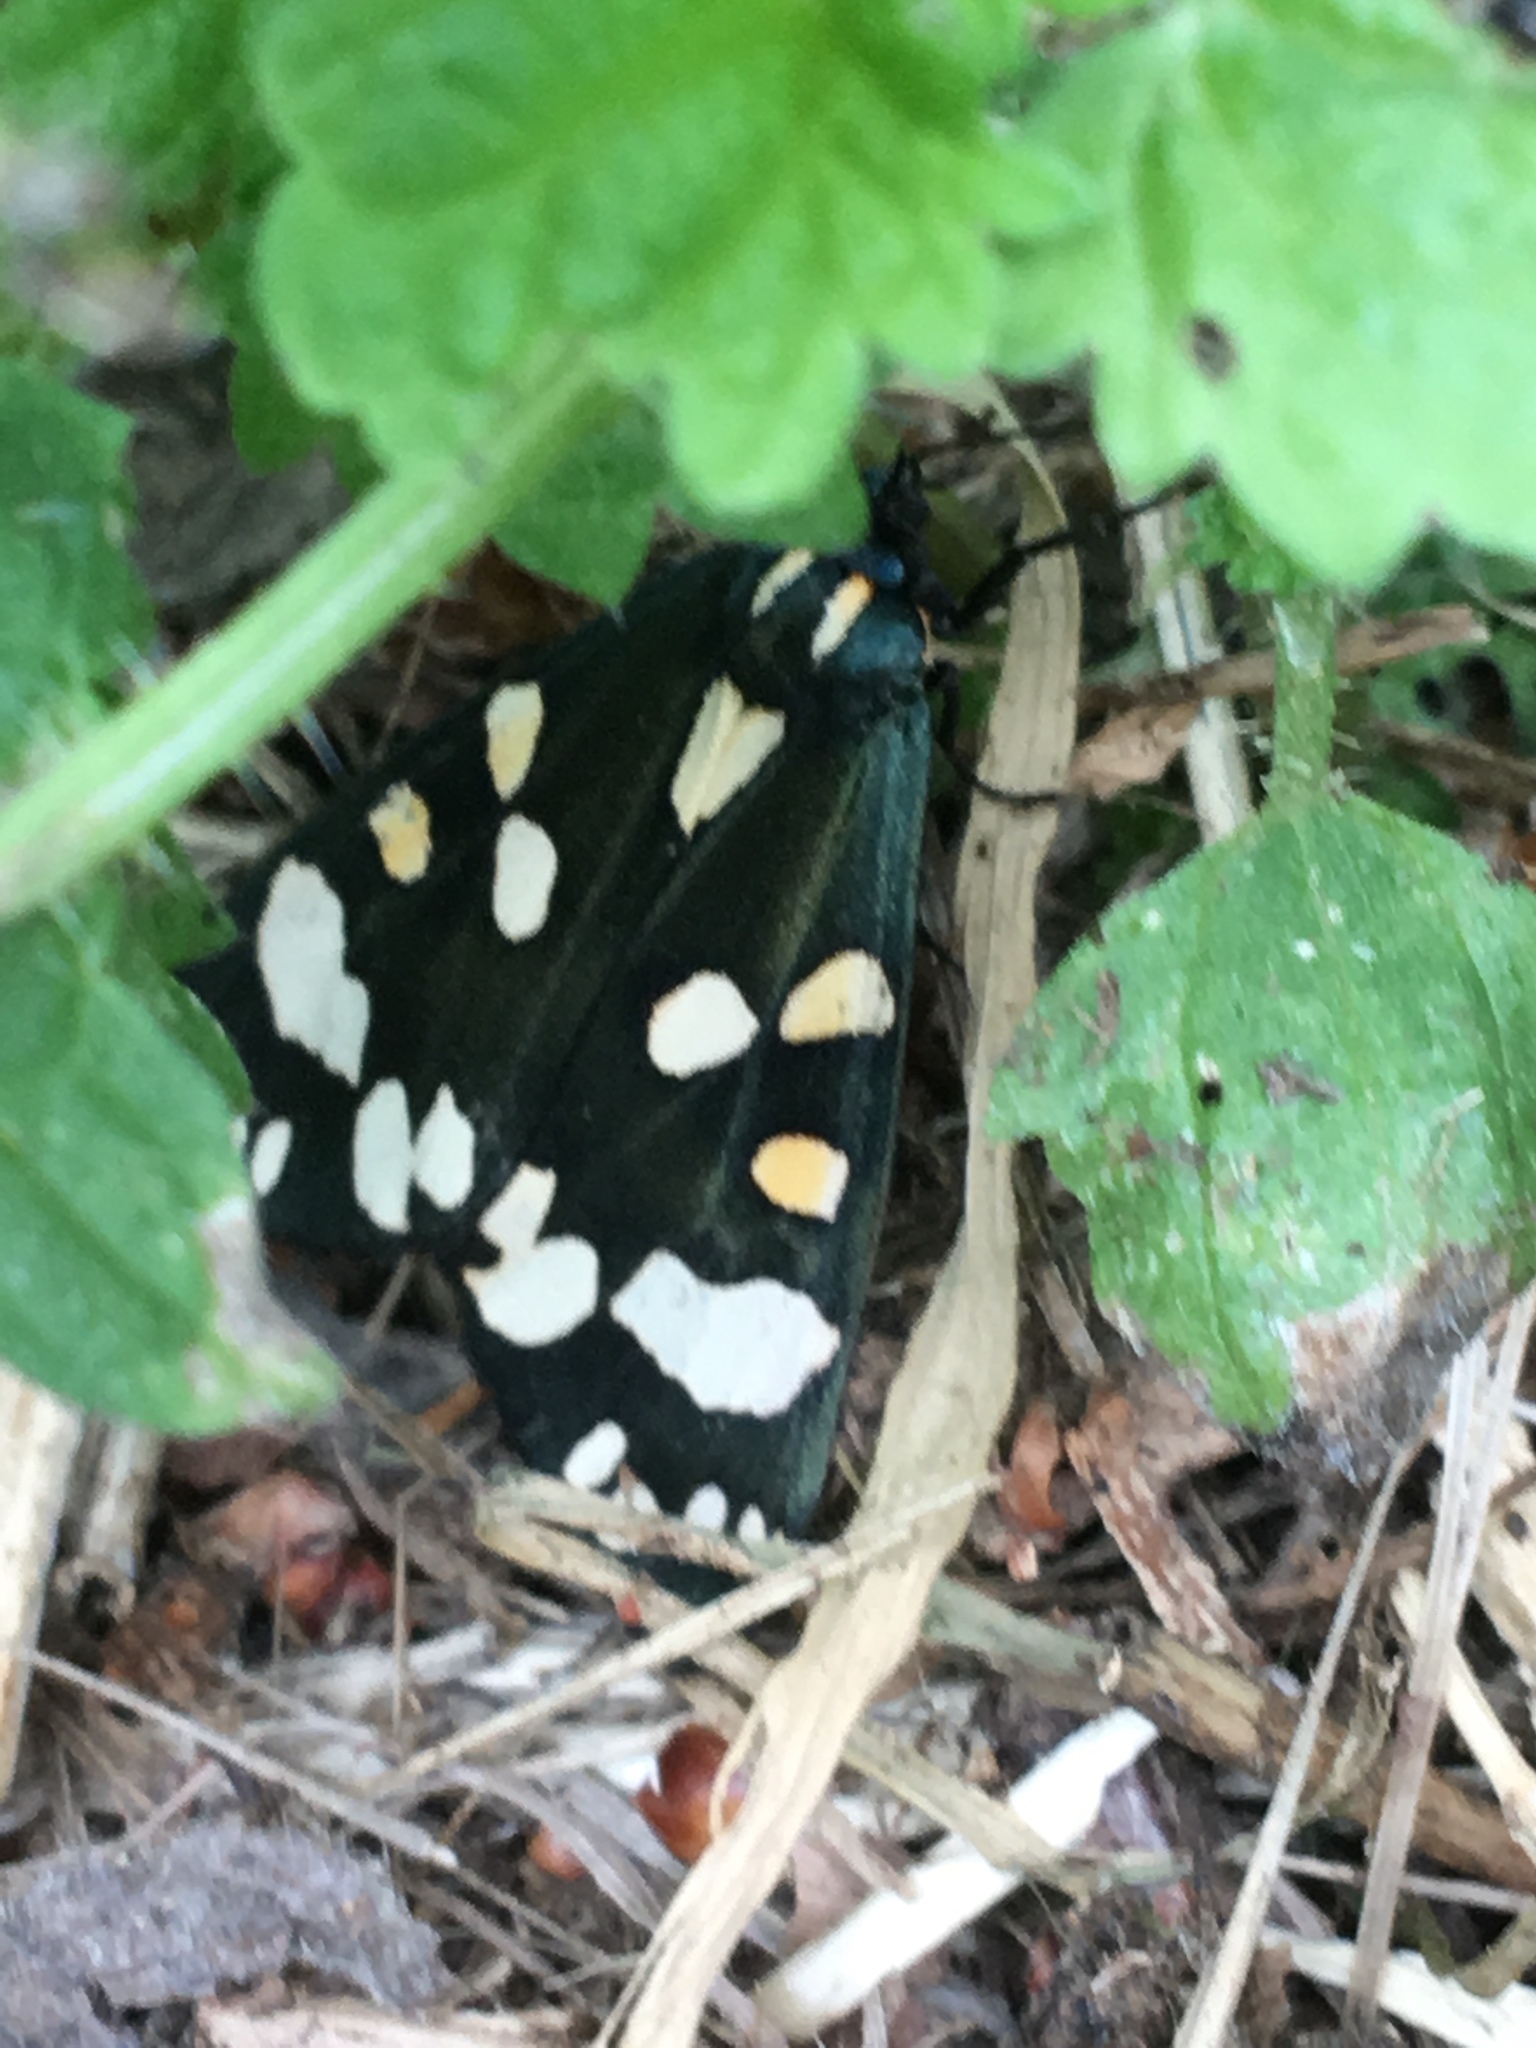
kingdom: Animalia
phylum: Arthropoda
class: Insecta
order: Lepidoptera
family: Erebidae
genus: Callimorpha
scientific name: Callimorpha dominula
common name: Scarlet tiger
